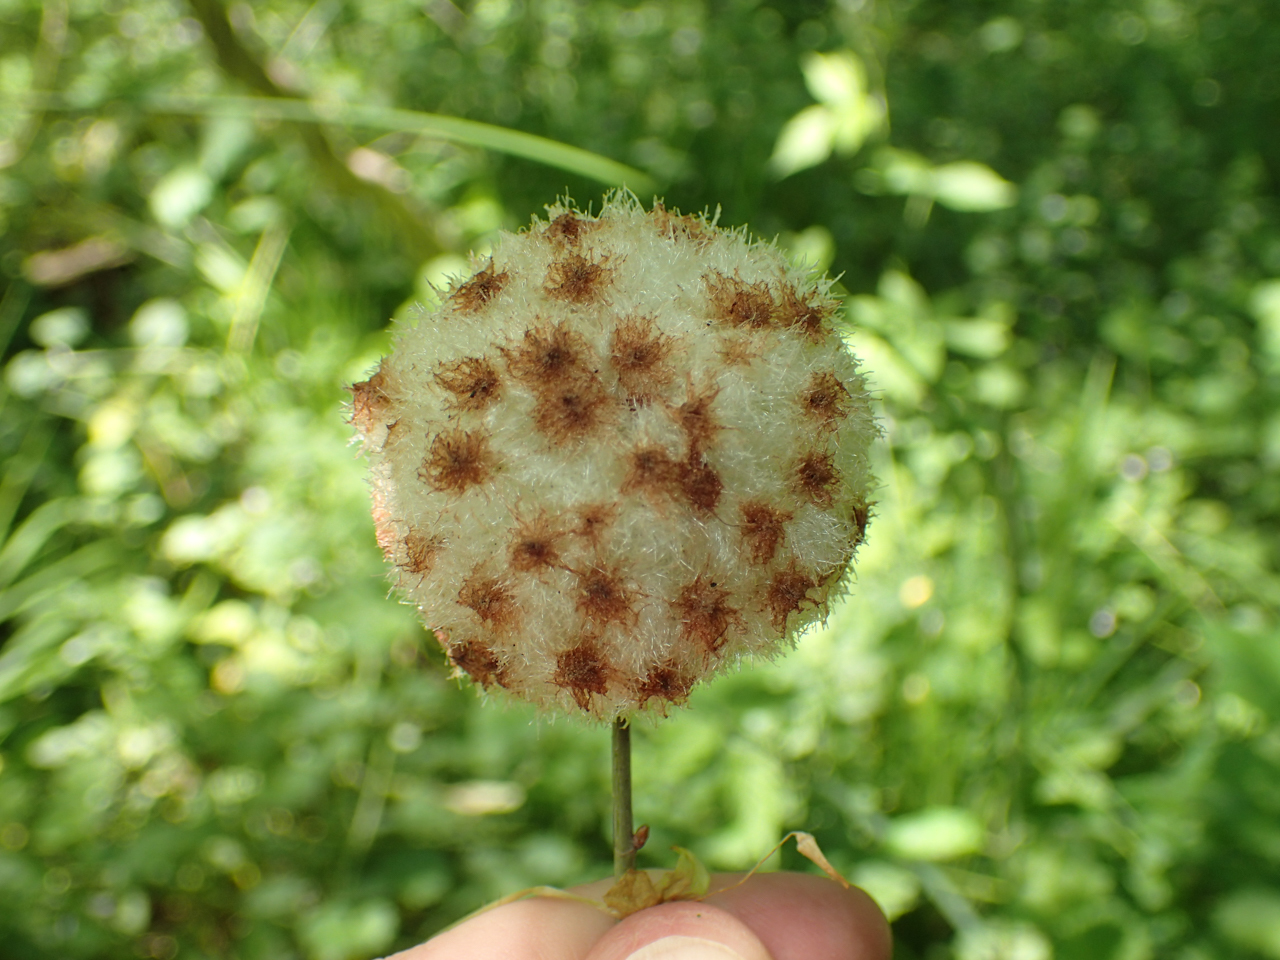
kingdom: Animalia
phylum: Arthropoda
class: Insecta
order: Hymenoptera
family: Cynipidae
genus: Callirhytis
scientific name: Callirhytis
